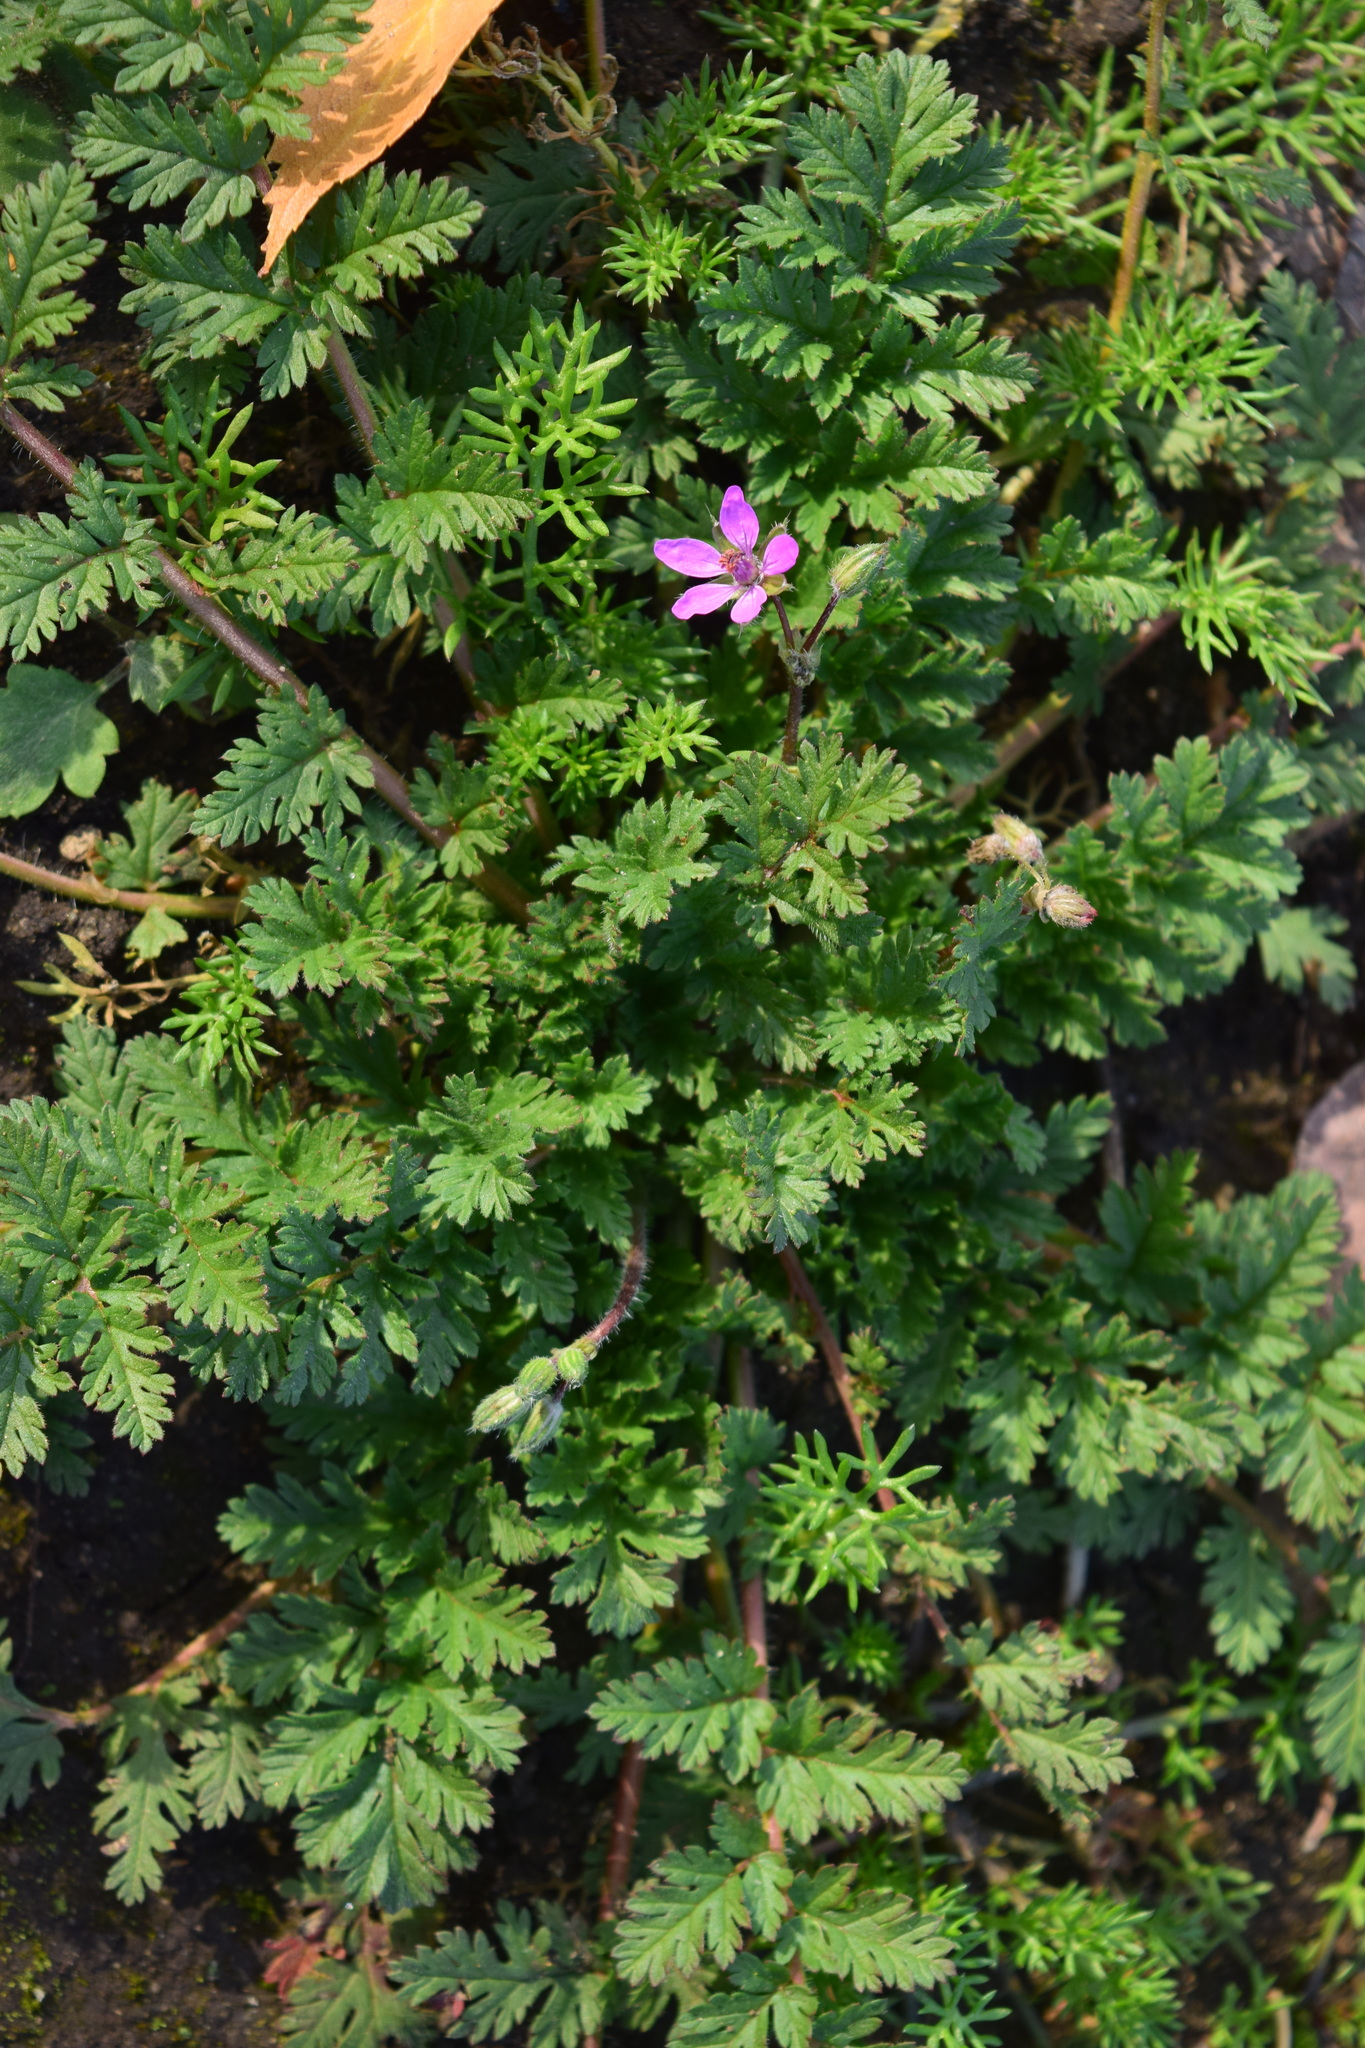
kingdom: Plantae
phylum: Tracheophyta
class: Magnoliopsida
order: Geraniales
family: Geraniaceae
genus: Erodium
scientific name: Erodium cicutarium
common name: Common stork's-bill
